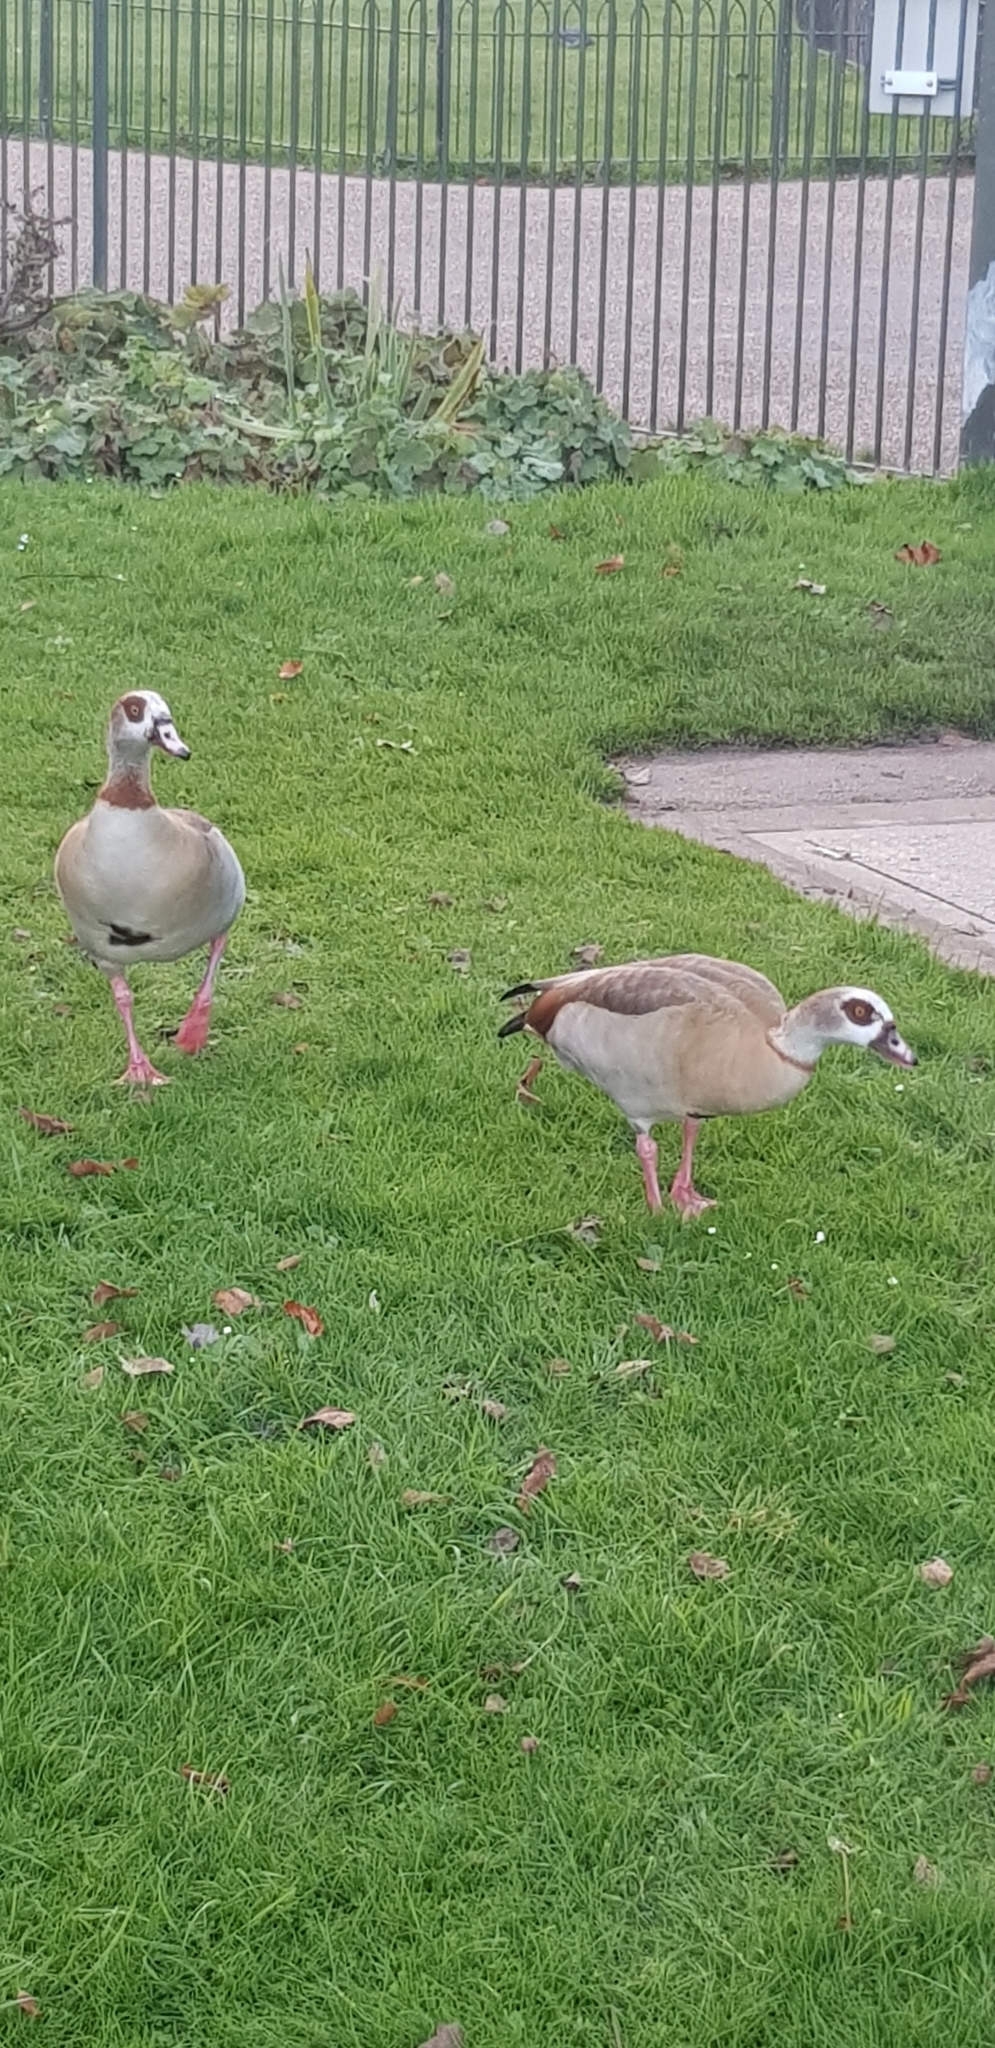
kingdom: Animalia
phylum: Chordata
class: Aves
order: Anseriformes
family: Anatidae
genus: Alopochen
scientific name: Alopochen aegyptiaca
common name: Egyptian goose
